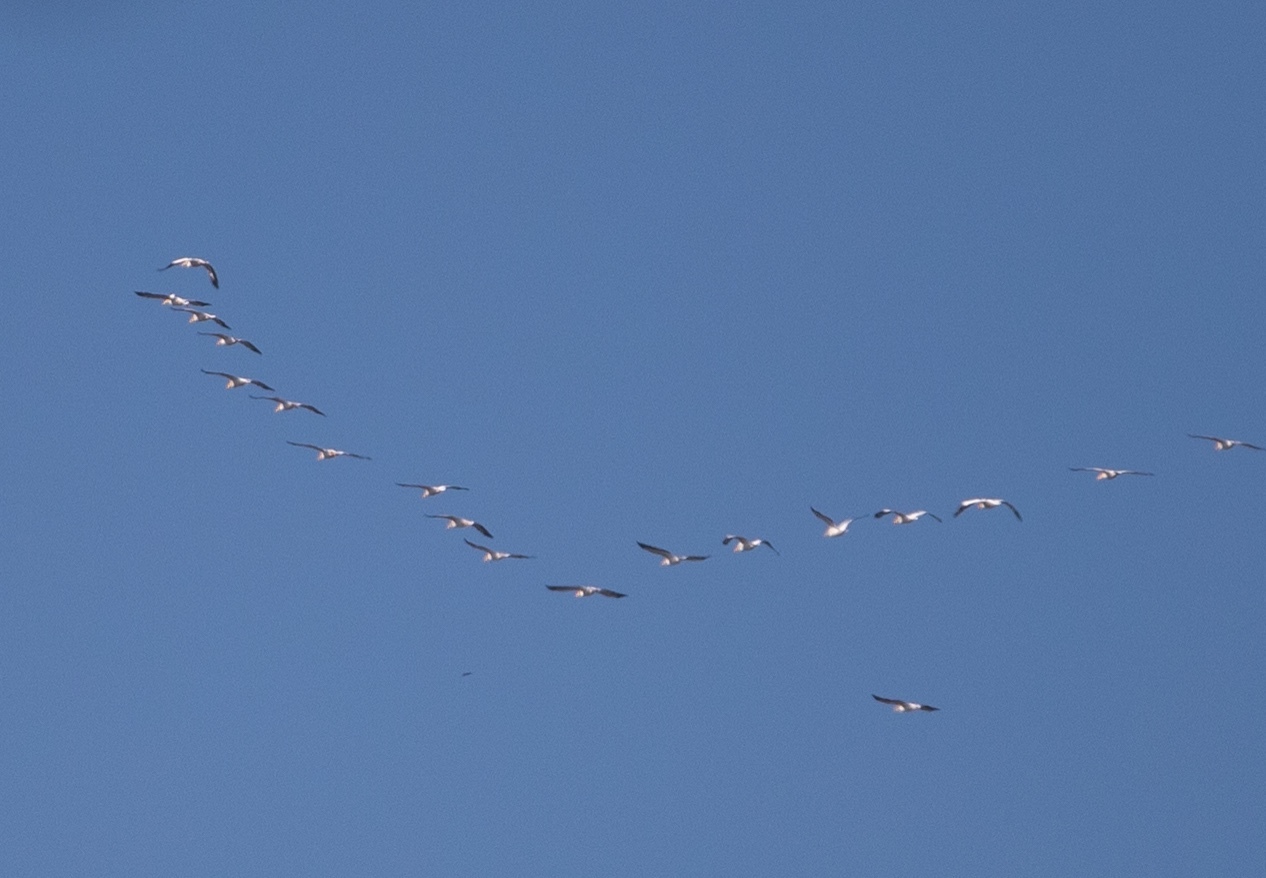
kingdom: Animalia
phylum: Chordata
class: Aves
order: Pelecaniformes
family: Pelecanidae
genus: Pelecanus
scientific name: Pelecanus erythrorhynchos
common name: American white pelican
